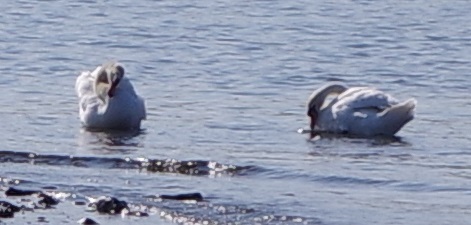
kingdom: Animalia
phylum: Chordata
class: Aves
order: Anseriformes
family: Anatidae
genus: Cygnus
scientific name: Cygnus olor
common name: Mute swan
